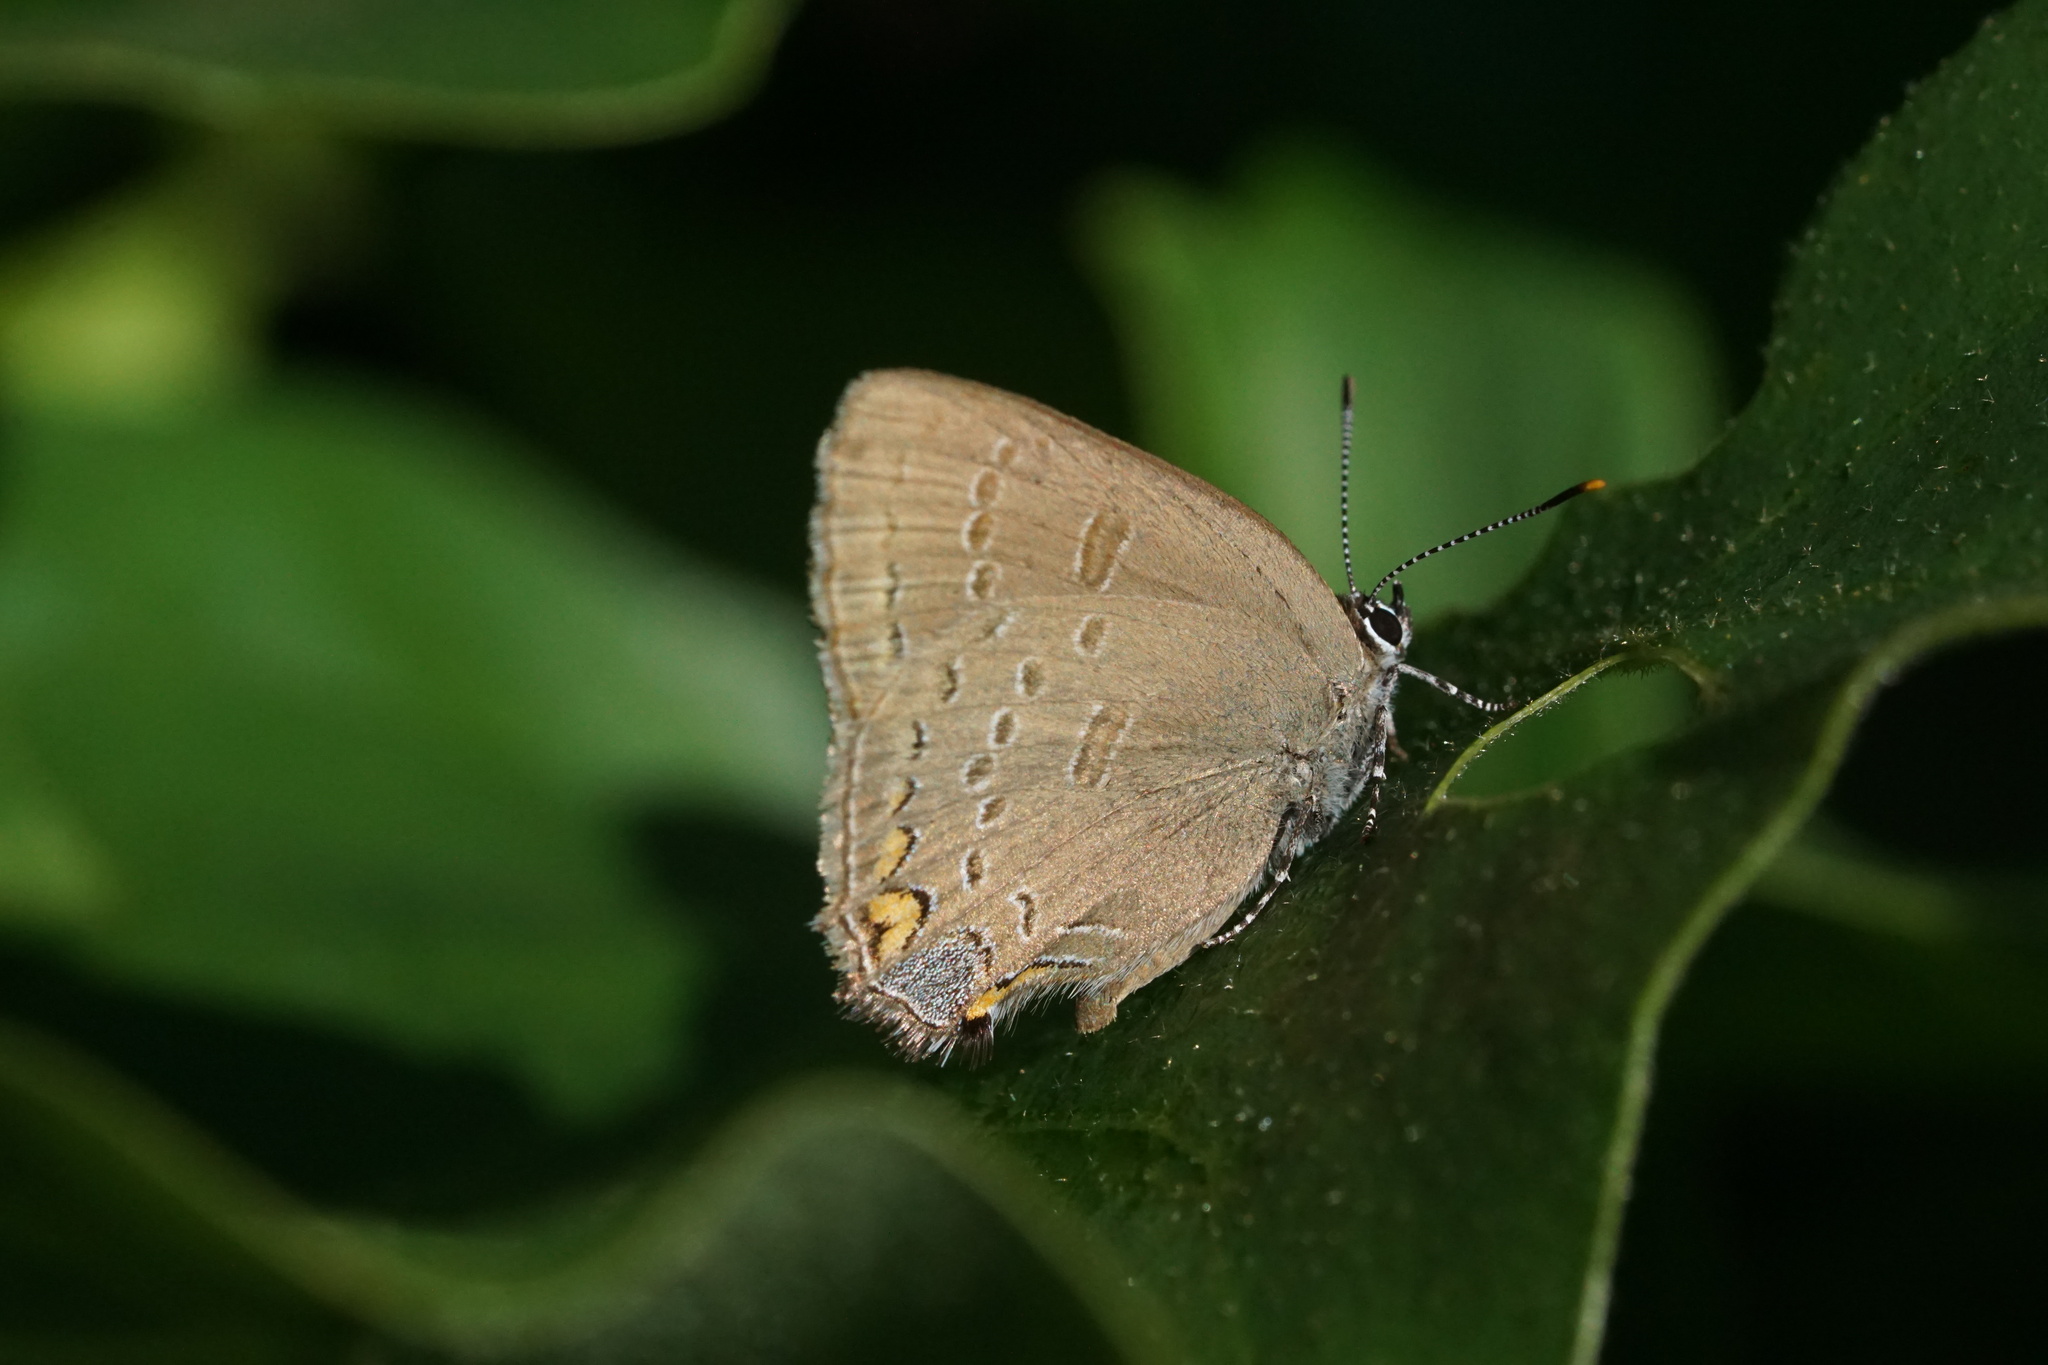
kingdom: Animalia
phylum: Arthropoda
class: Insecta
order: Lepidoptera
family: Lycaenidae
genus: Satyrium
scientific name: Satyrium edwardsii
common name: Edwards' hairstreak
